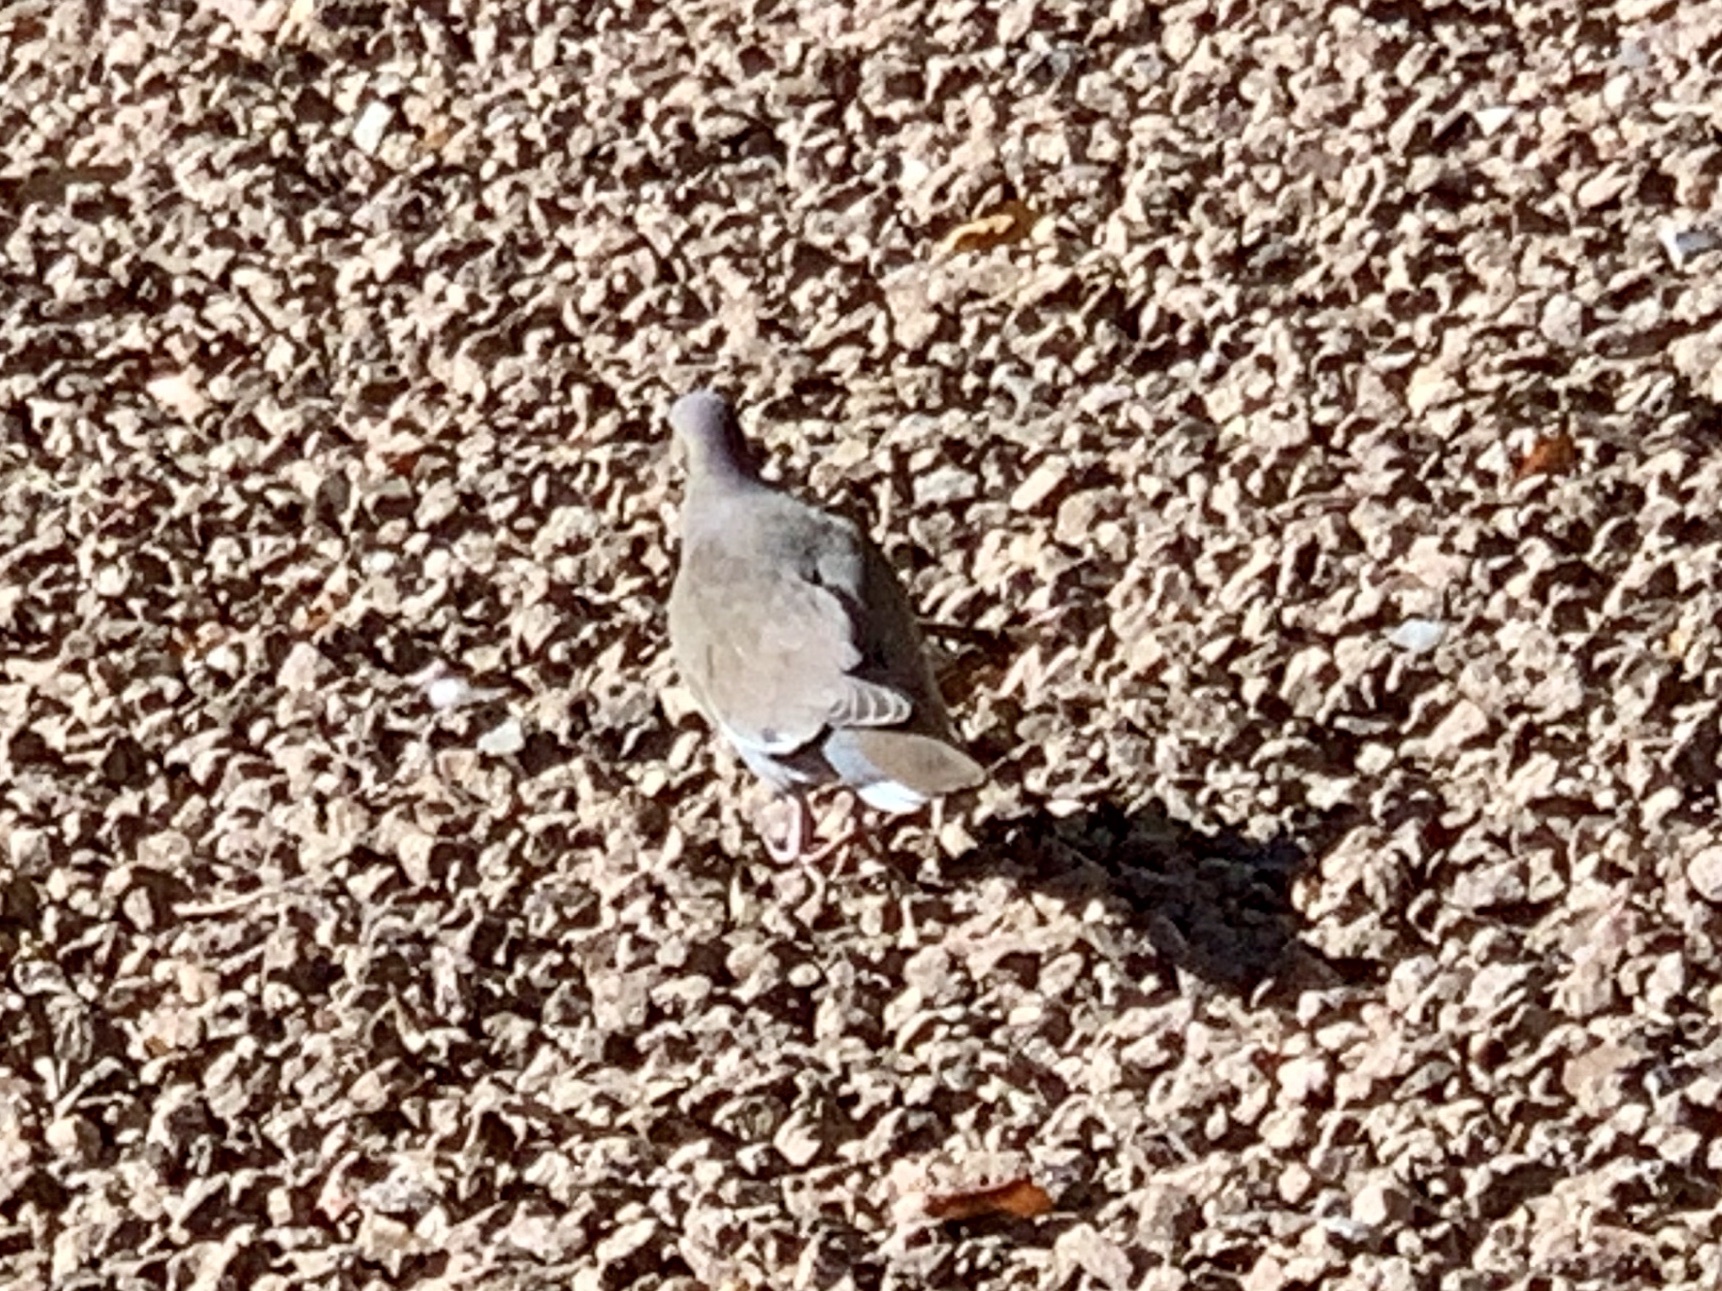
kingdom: Animalia
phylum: Chordata
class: Aves
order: Columbiformes
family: Columbidae
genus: Zenaida
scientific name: Zenaida asiatica
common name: White-winged dove
